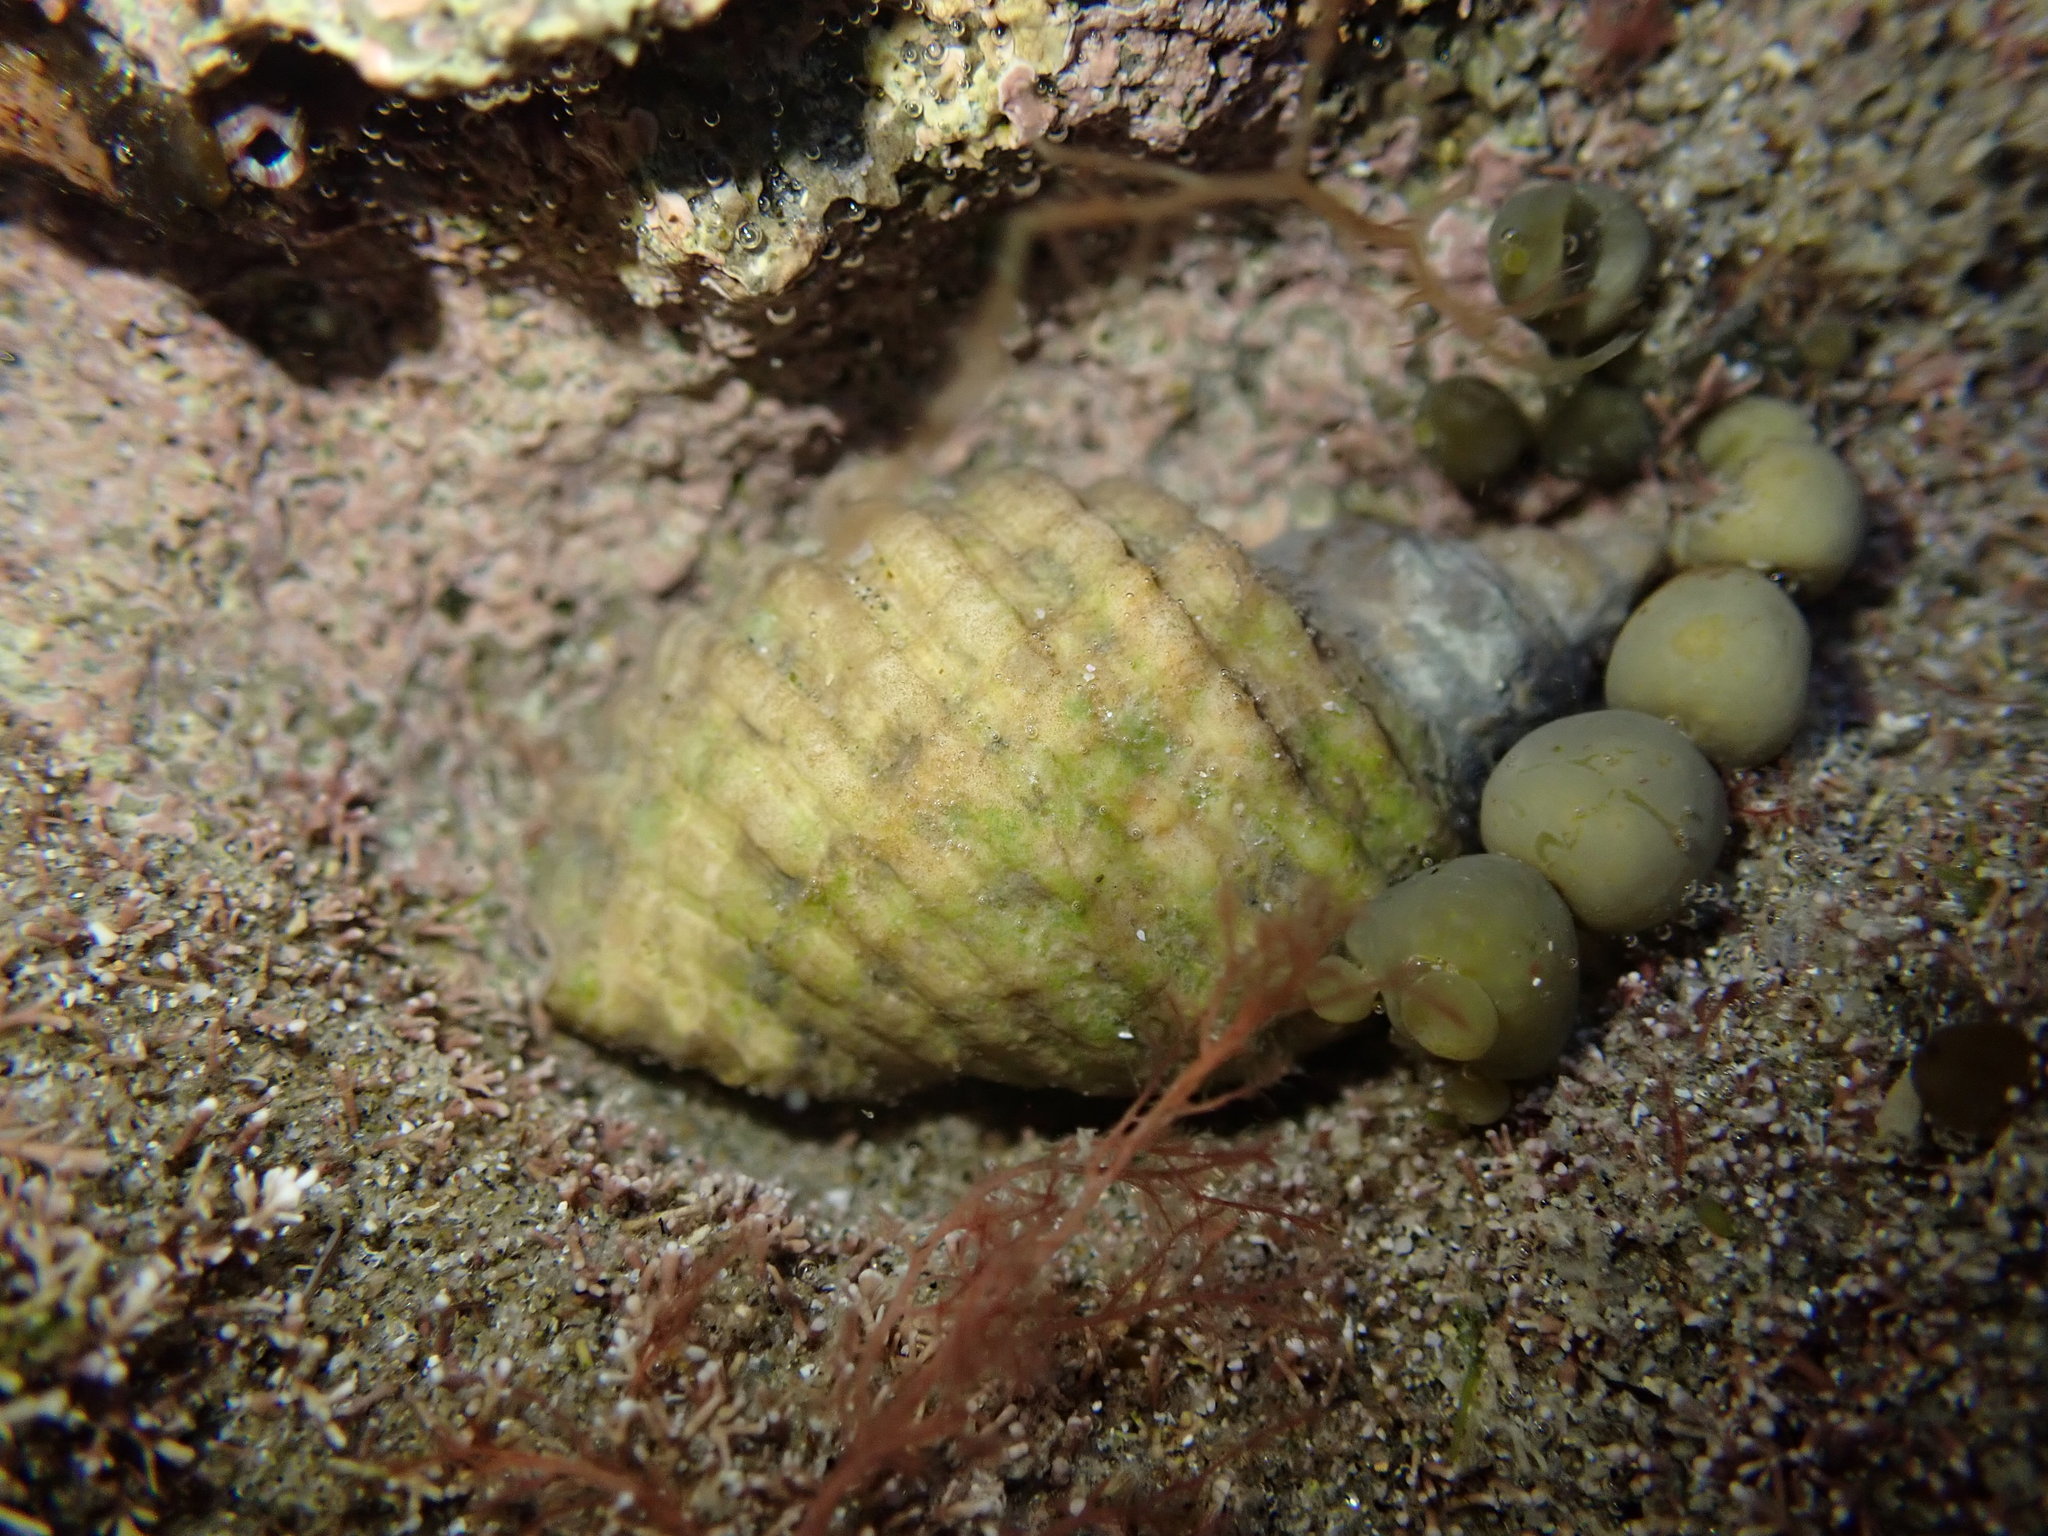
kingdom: Animalia
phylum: Mollusca
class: Gastropoda
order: Neogastropoda
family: Muricidae
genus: Dicathais
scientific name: Dicathais orbita
